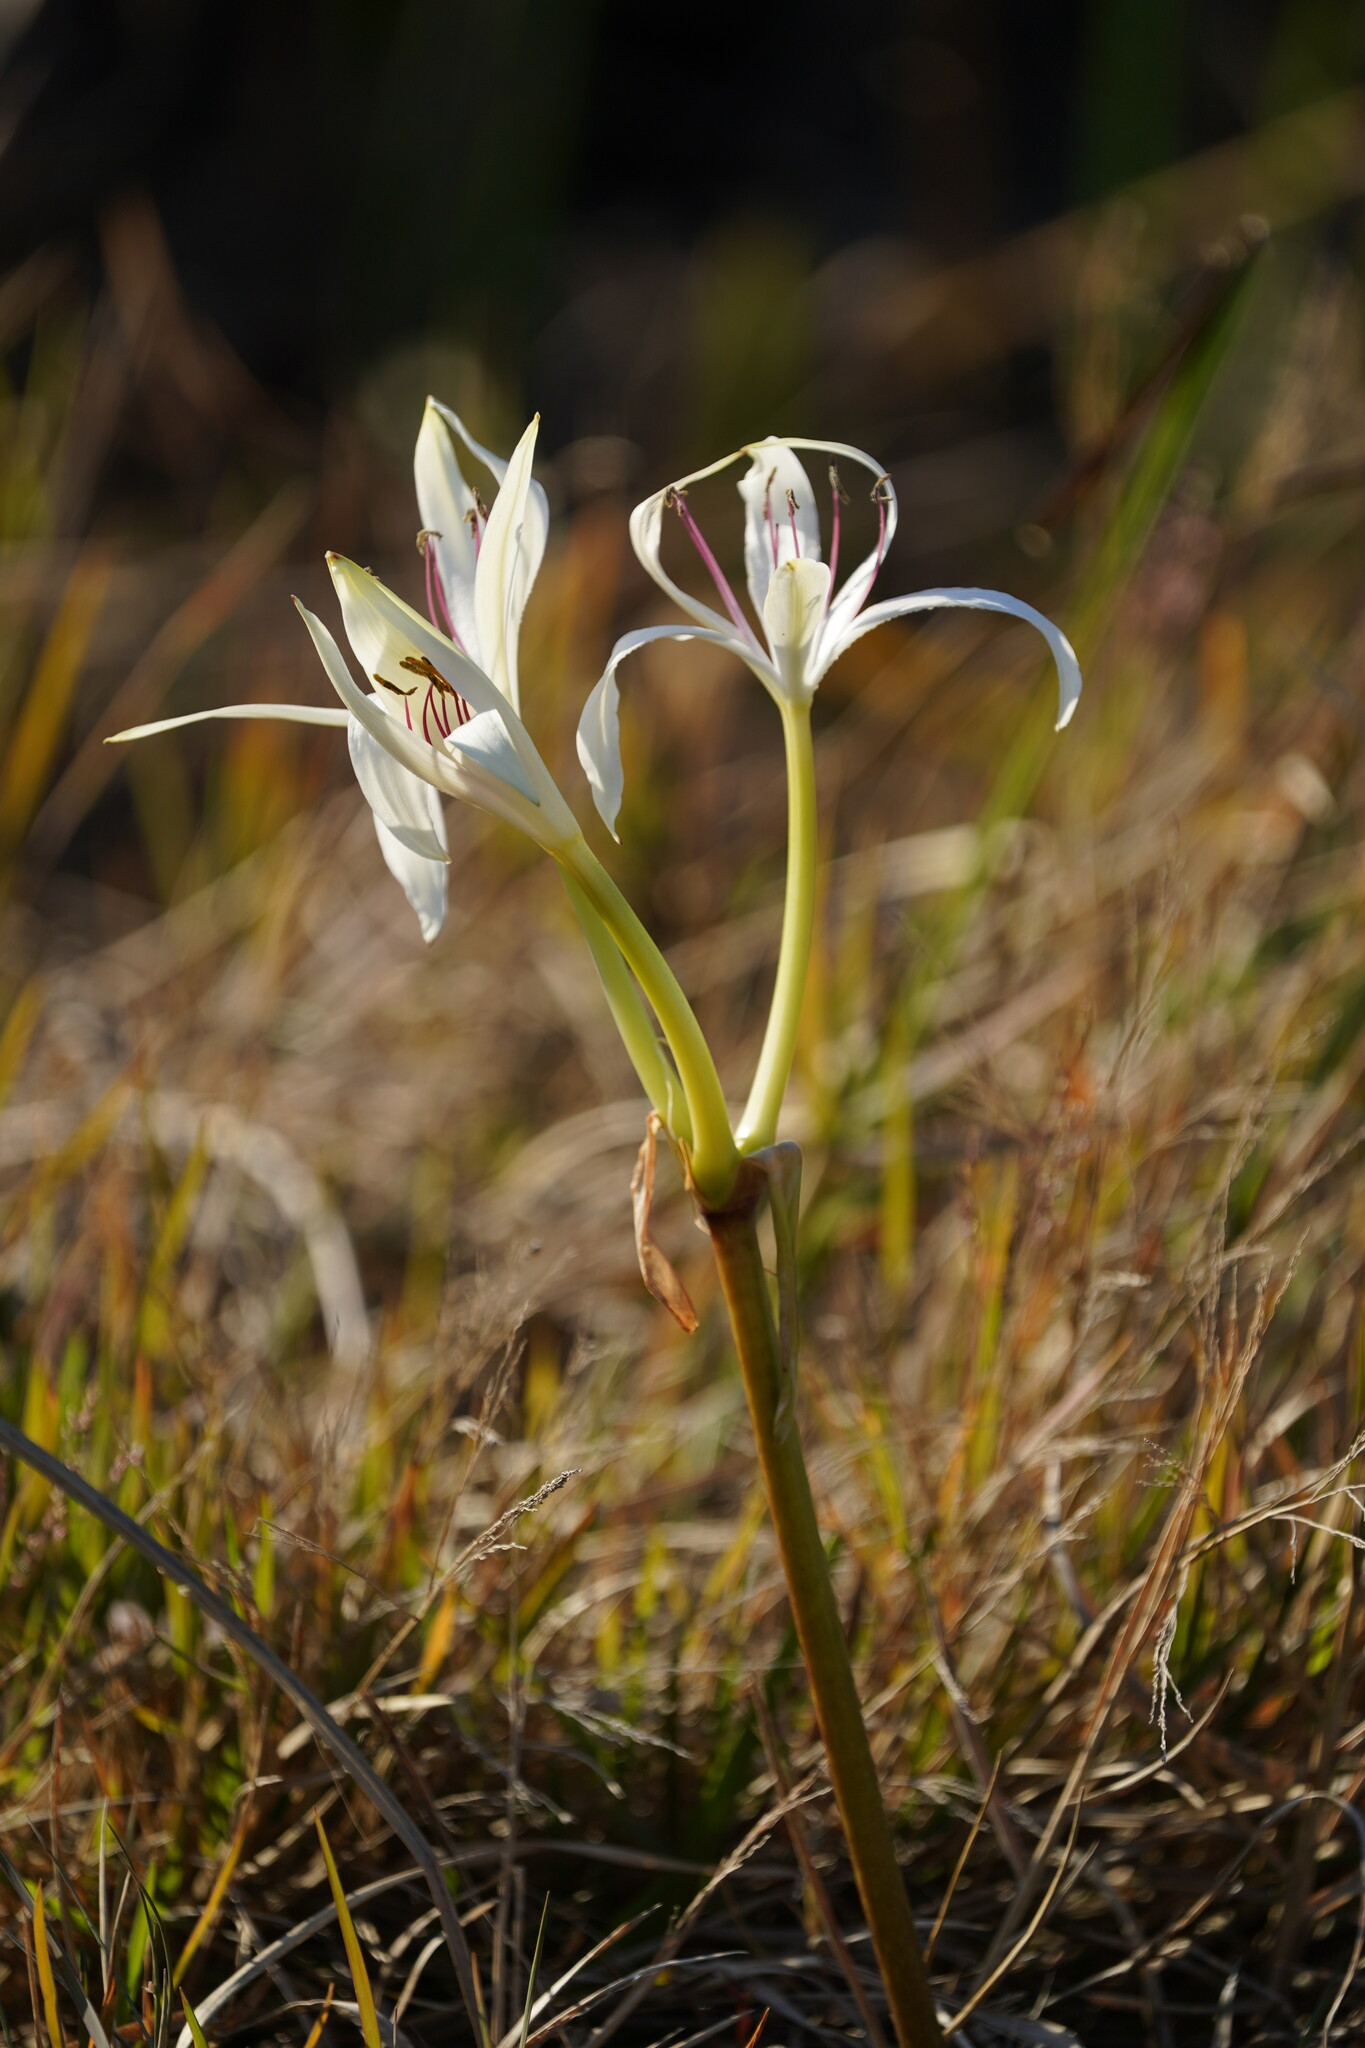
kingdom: Plantae
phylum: Tracheophyta
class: Liliopsida
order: Asparagales
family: Amaryllidaceae
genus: Crinum
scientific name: Crinum americanum
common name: Florida swamp-lily
